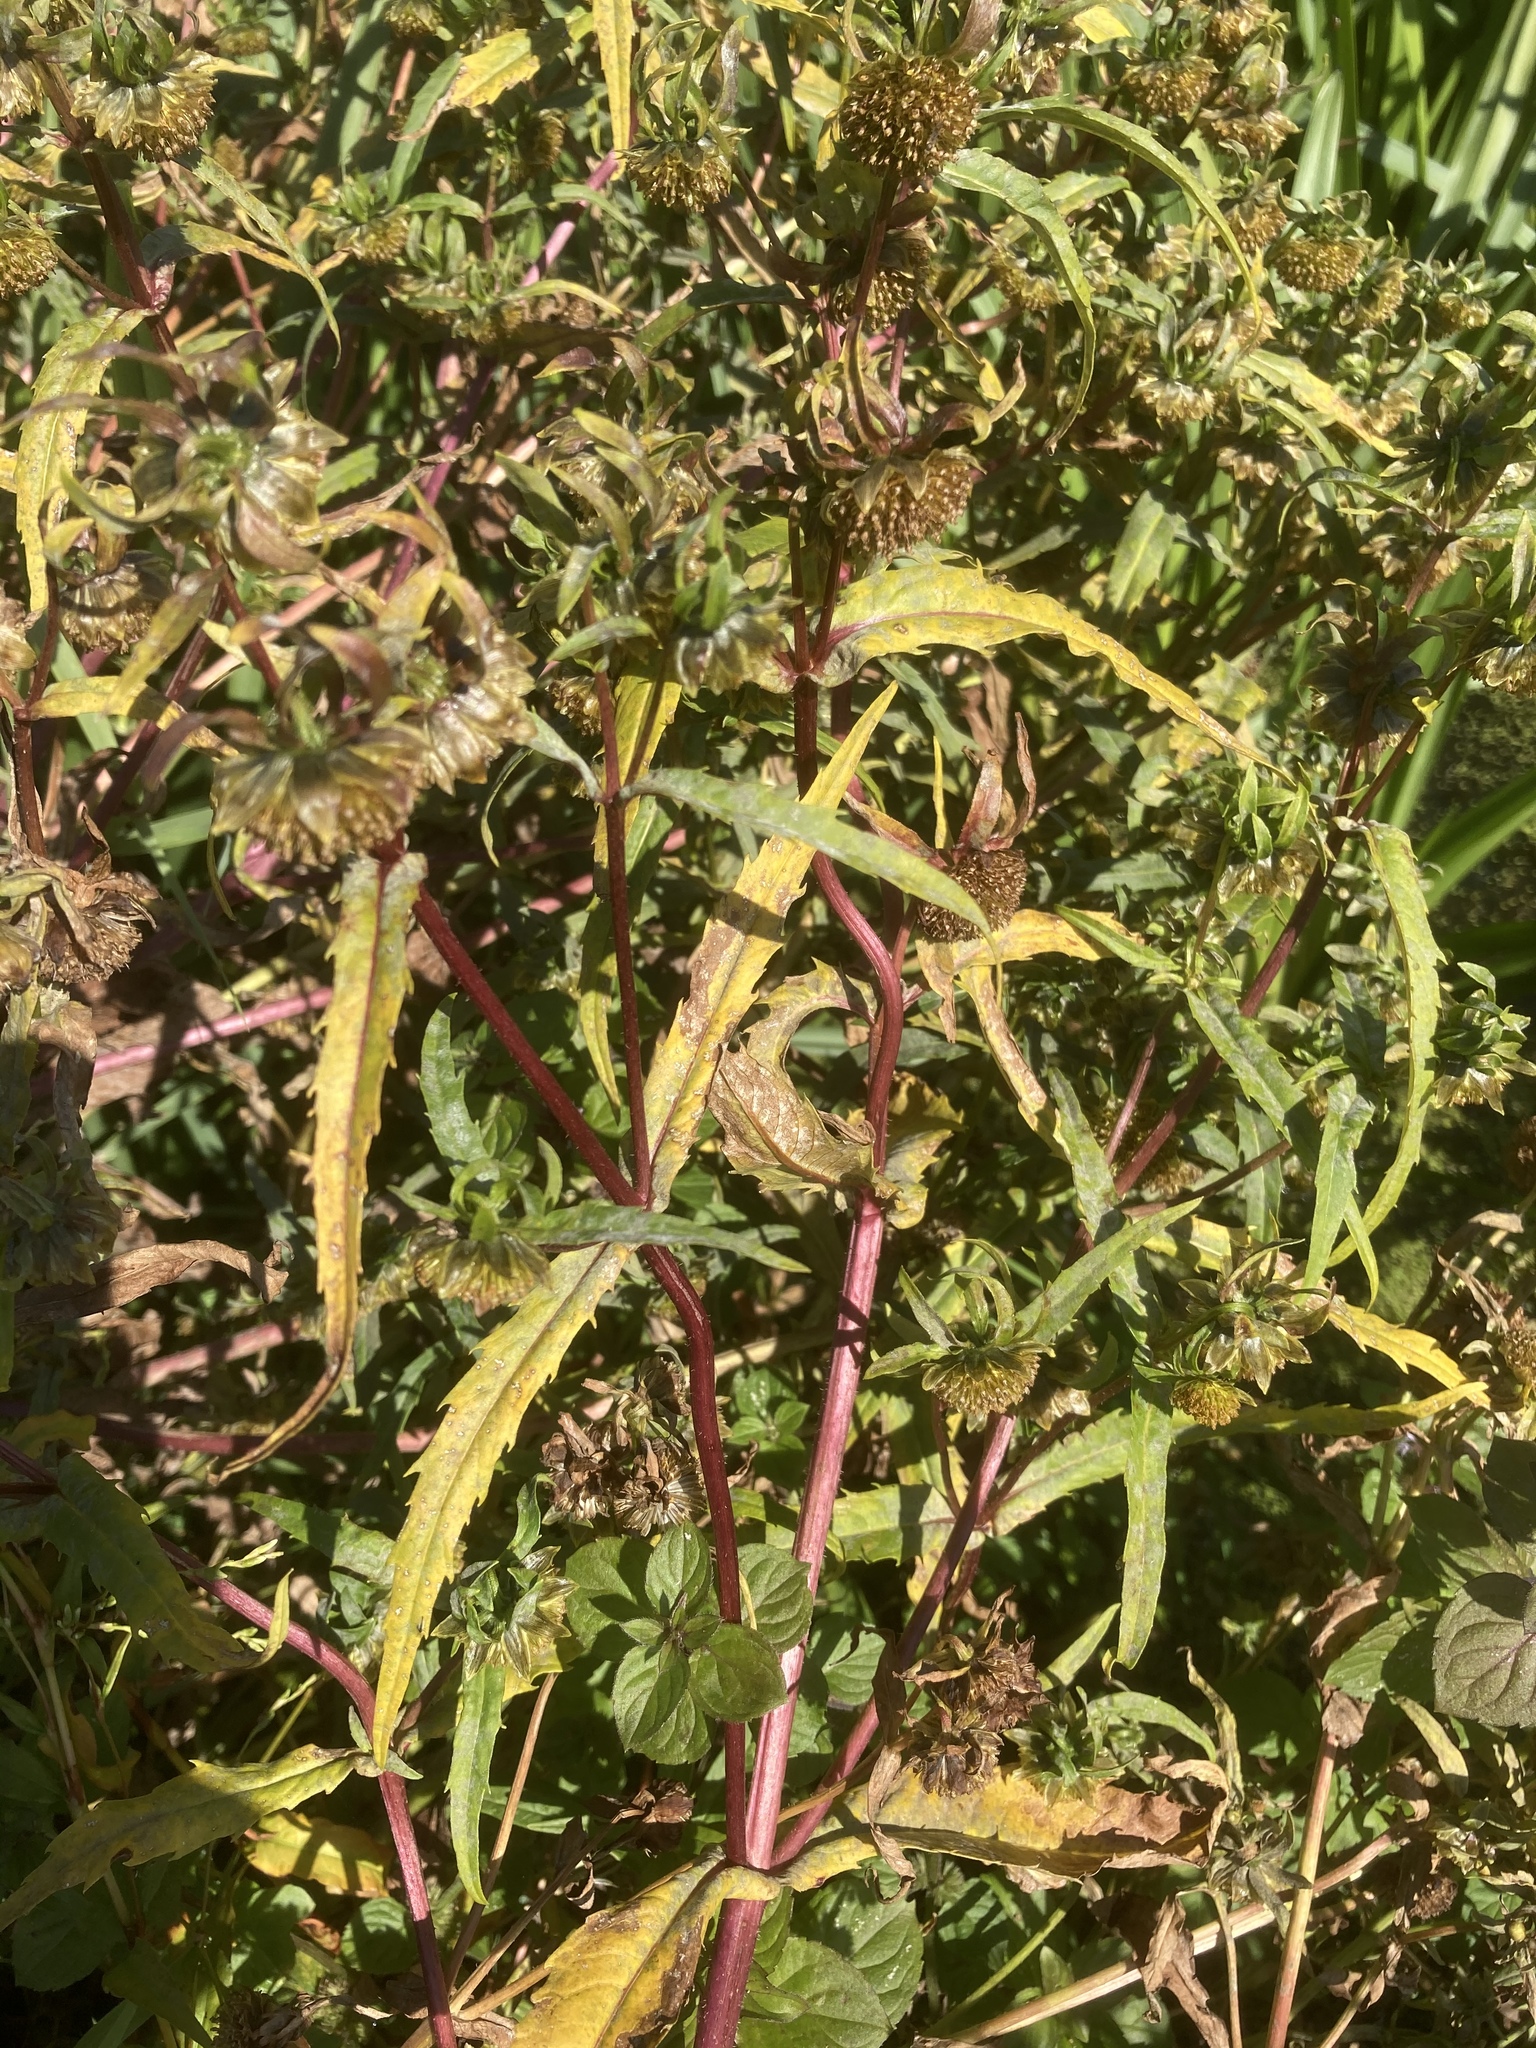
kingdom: Plantae
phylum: Tracheophyta
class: Magnoliopsida
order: Asterales
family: Asteraceae
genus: Bidens
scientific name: Bidens cernua
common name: Nodding bur-marigold
